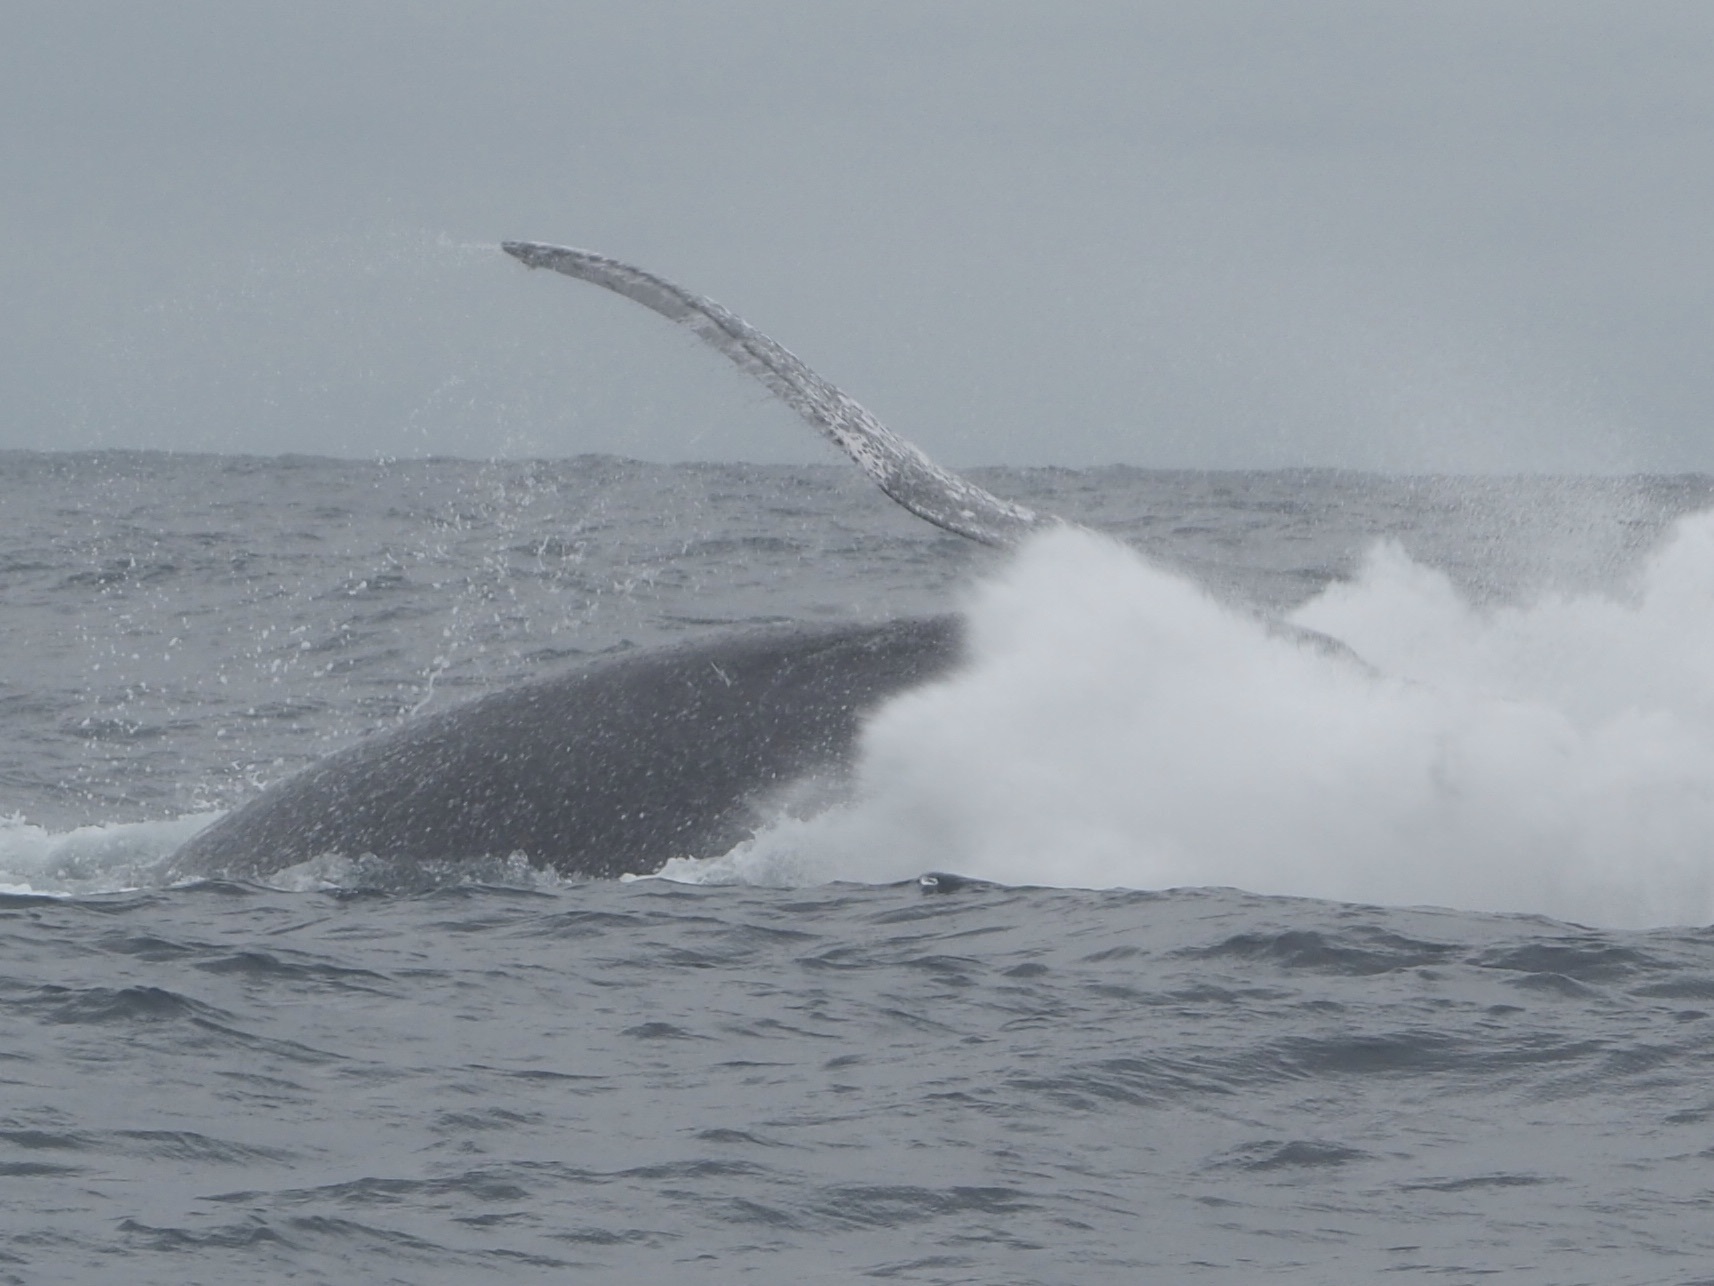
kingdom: Animalia
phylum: Chordata
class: Mammalia
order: Cetacea
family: Balaenopteridae
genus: Megaptera
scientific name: Megaptera novaeangliae
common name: Humpback whale
